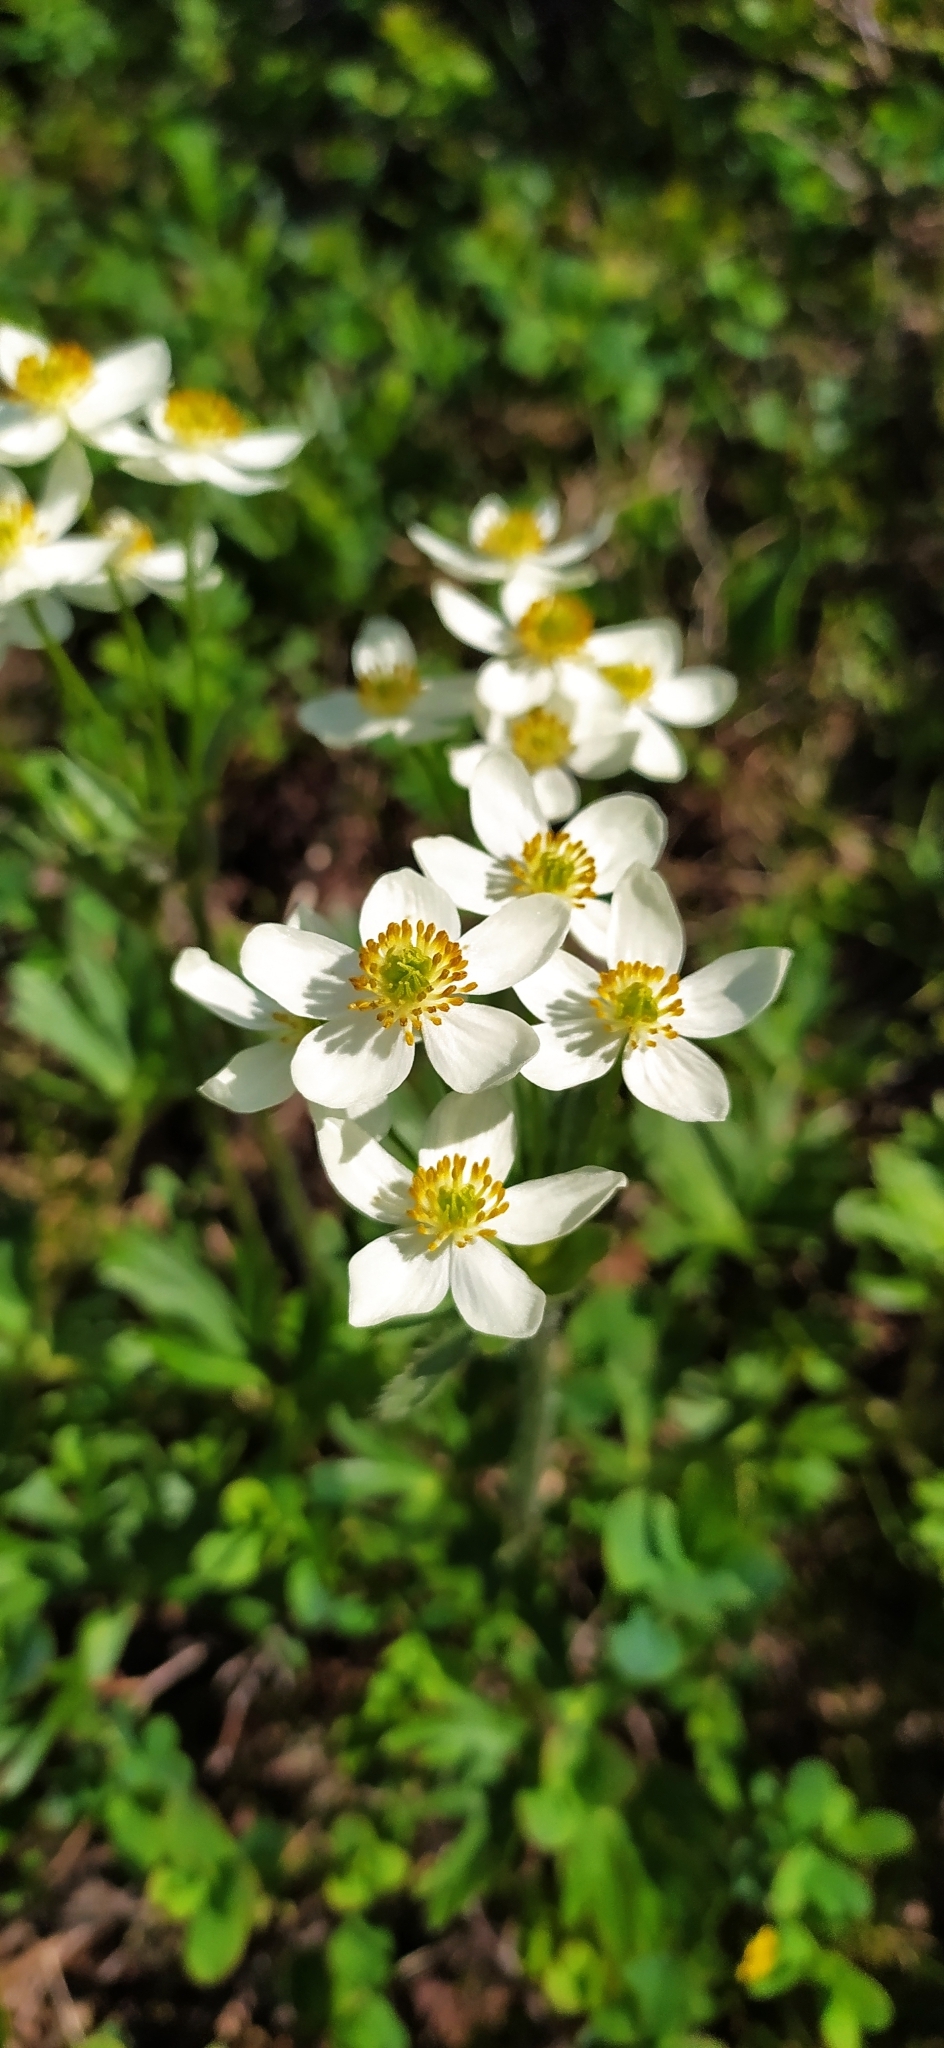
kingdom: Plantae
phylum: Tracheophyta
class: Magnoliopsida
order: Ranunculales
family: Ranunculaceae
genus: Anemonastrum
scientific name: Anemonastrum biarmiense
